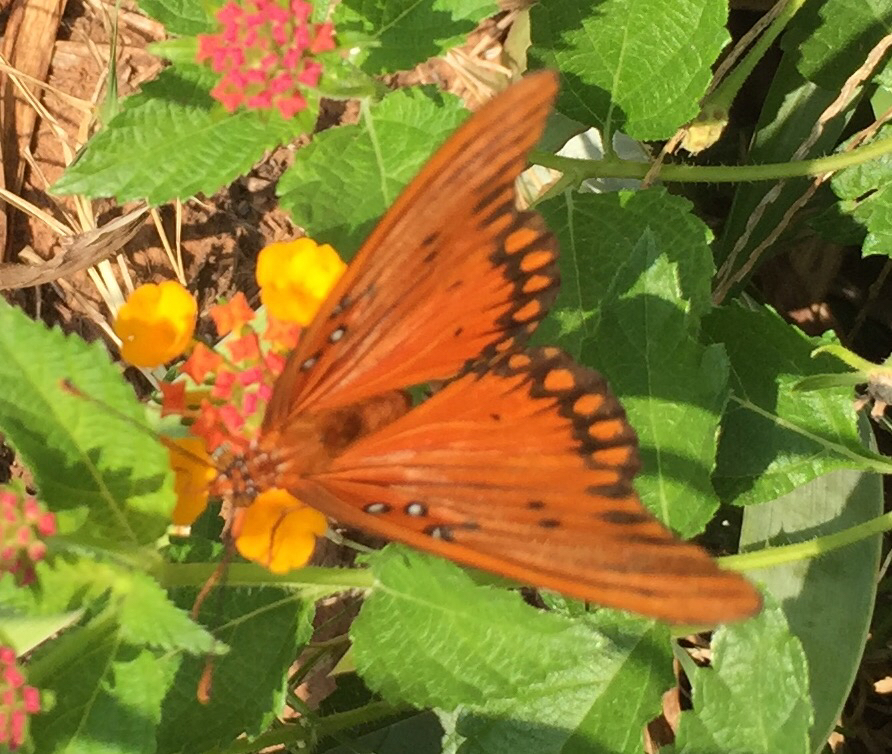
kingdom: Animalia
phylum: Arthropoda
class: Insecta
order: Lepidoptera
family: Nymphalidae
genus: Dione
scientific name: Dione vanillae
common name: Gulf fritillary
